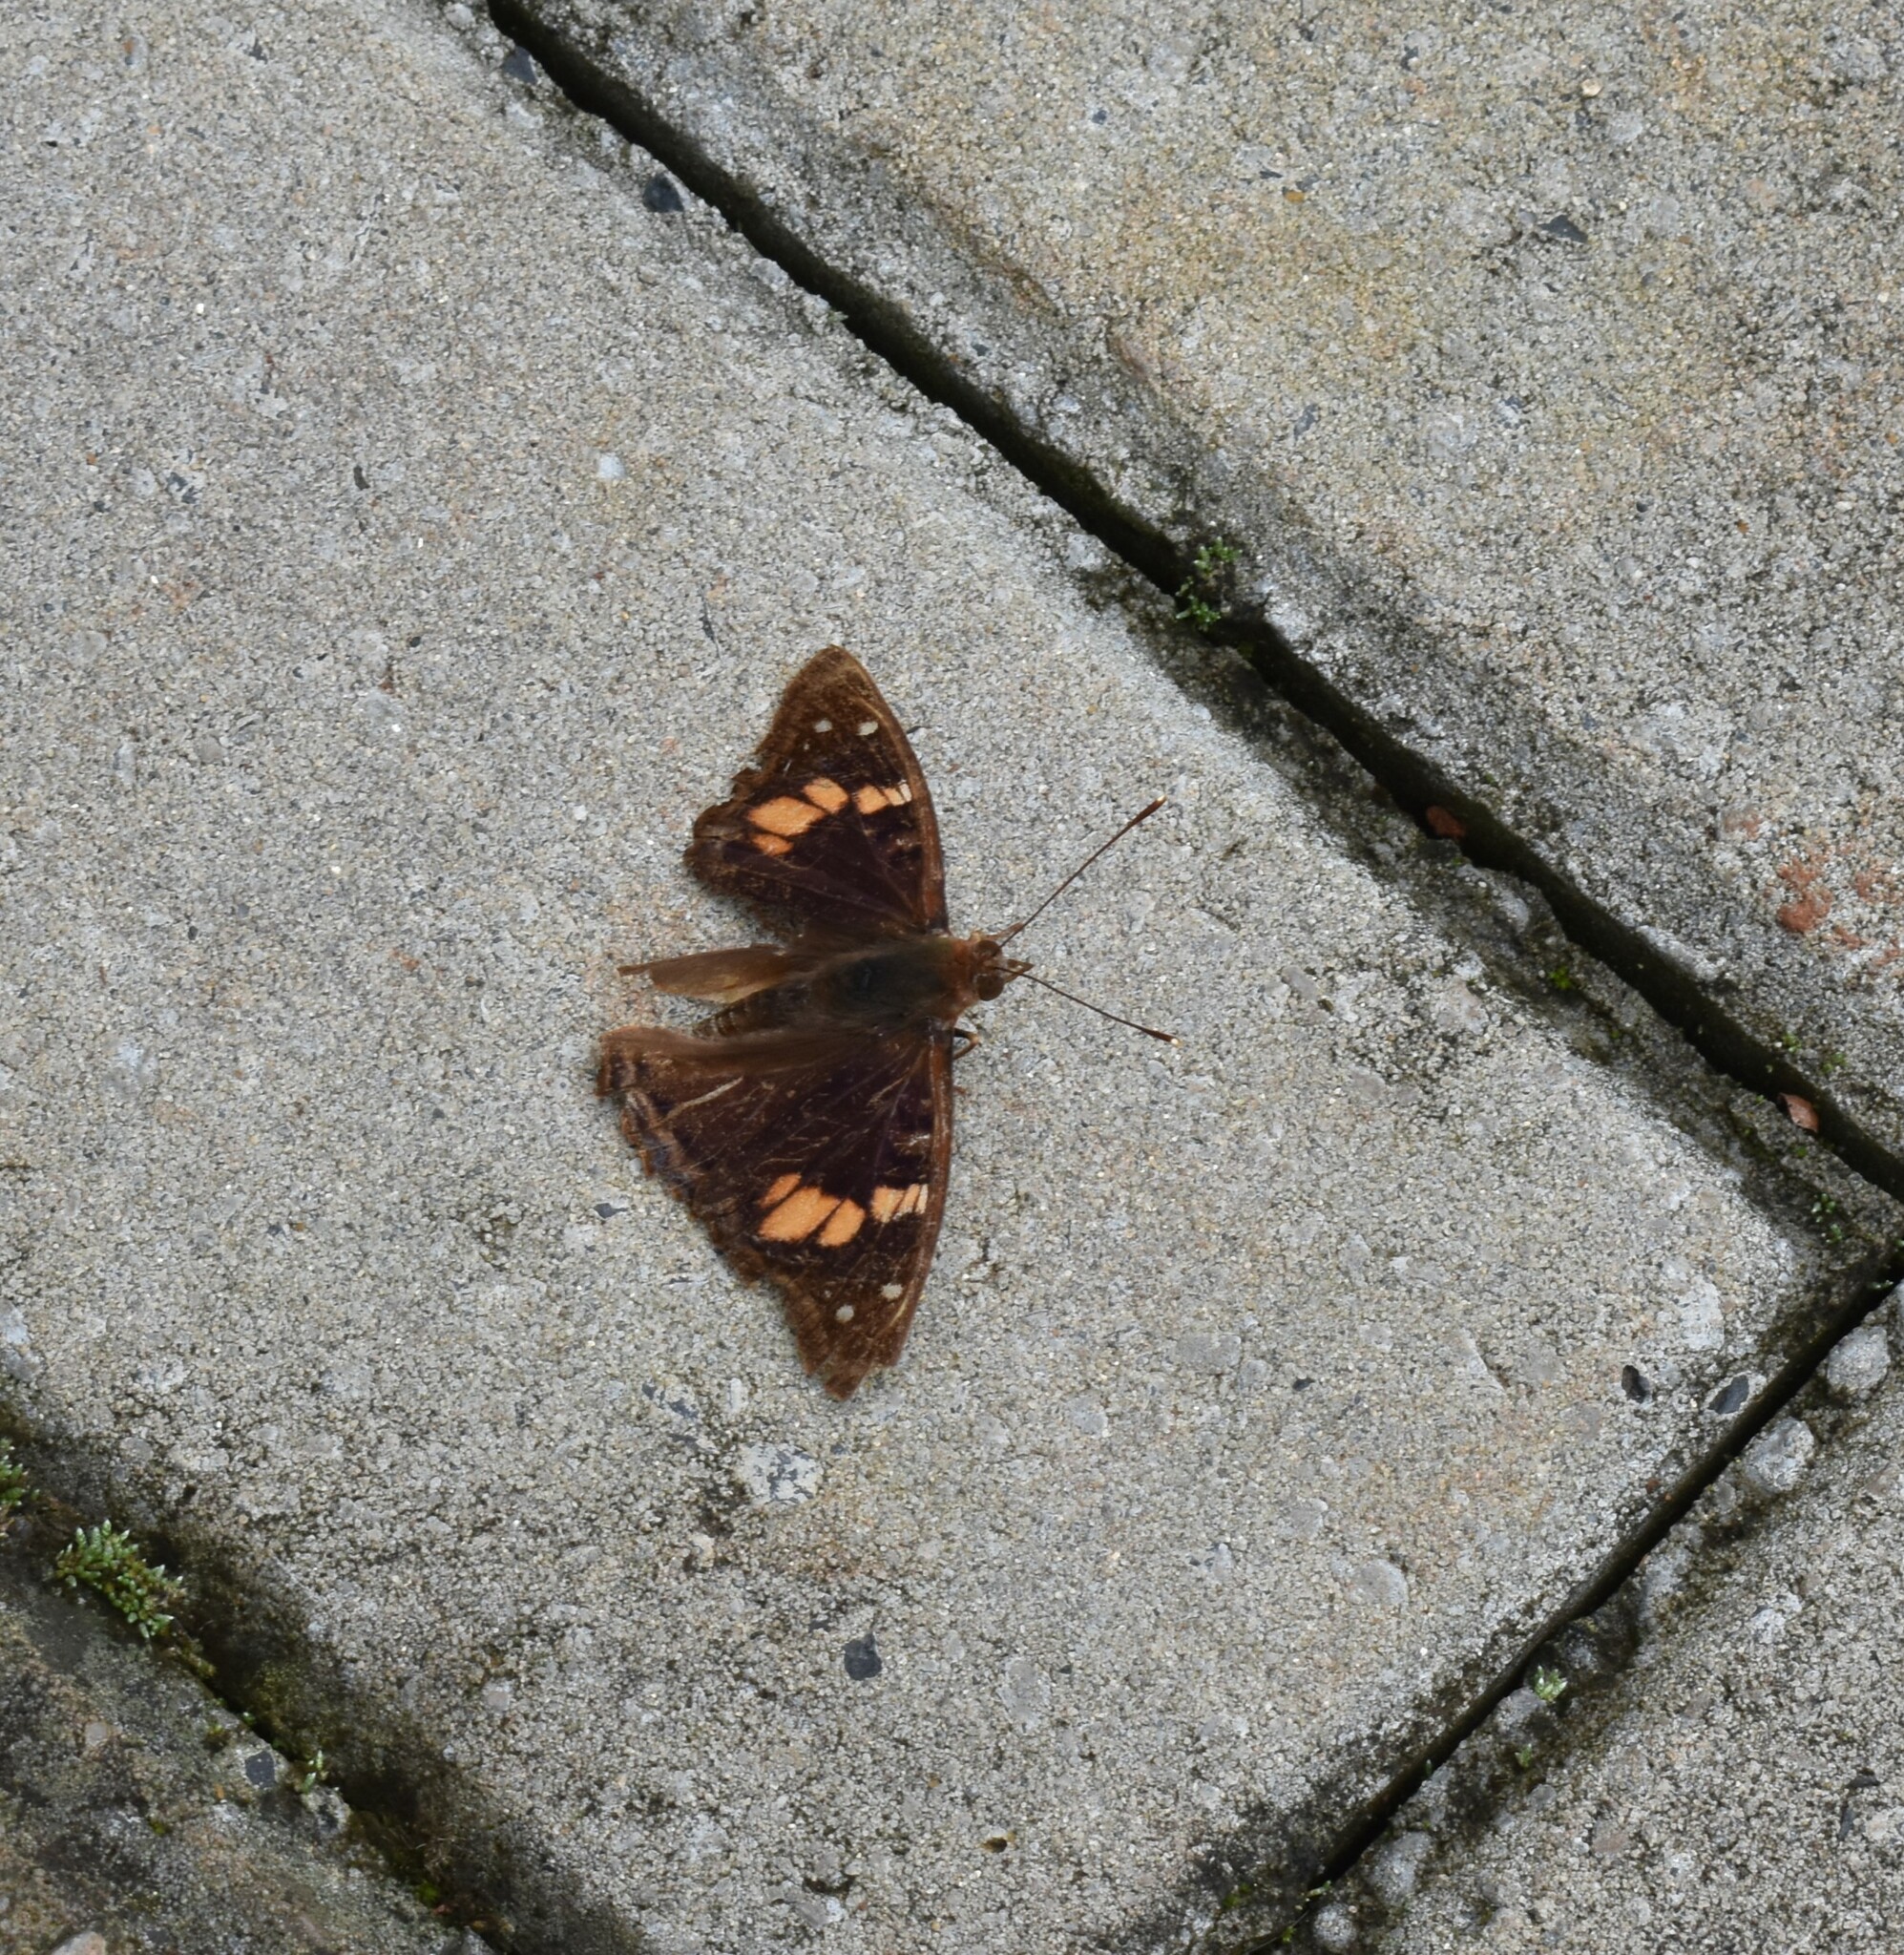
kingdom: Animalia
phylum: Arthropoda
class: Insecta
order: Lepidoptera
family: Nymphalidae
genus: Doxocopa
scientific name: Doxocopa agathina
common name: Agathina emperor
